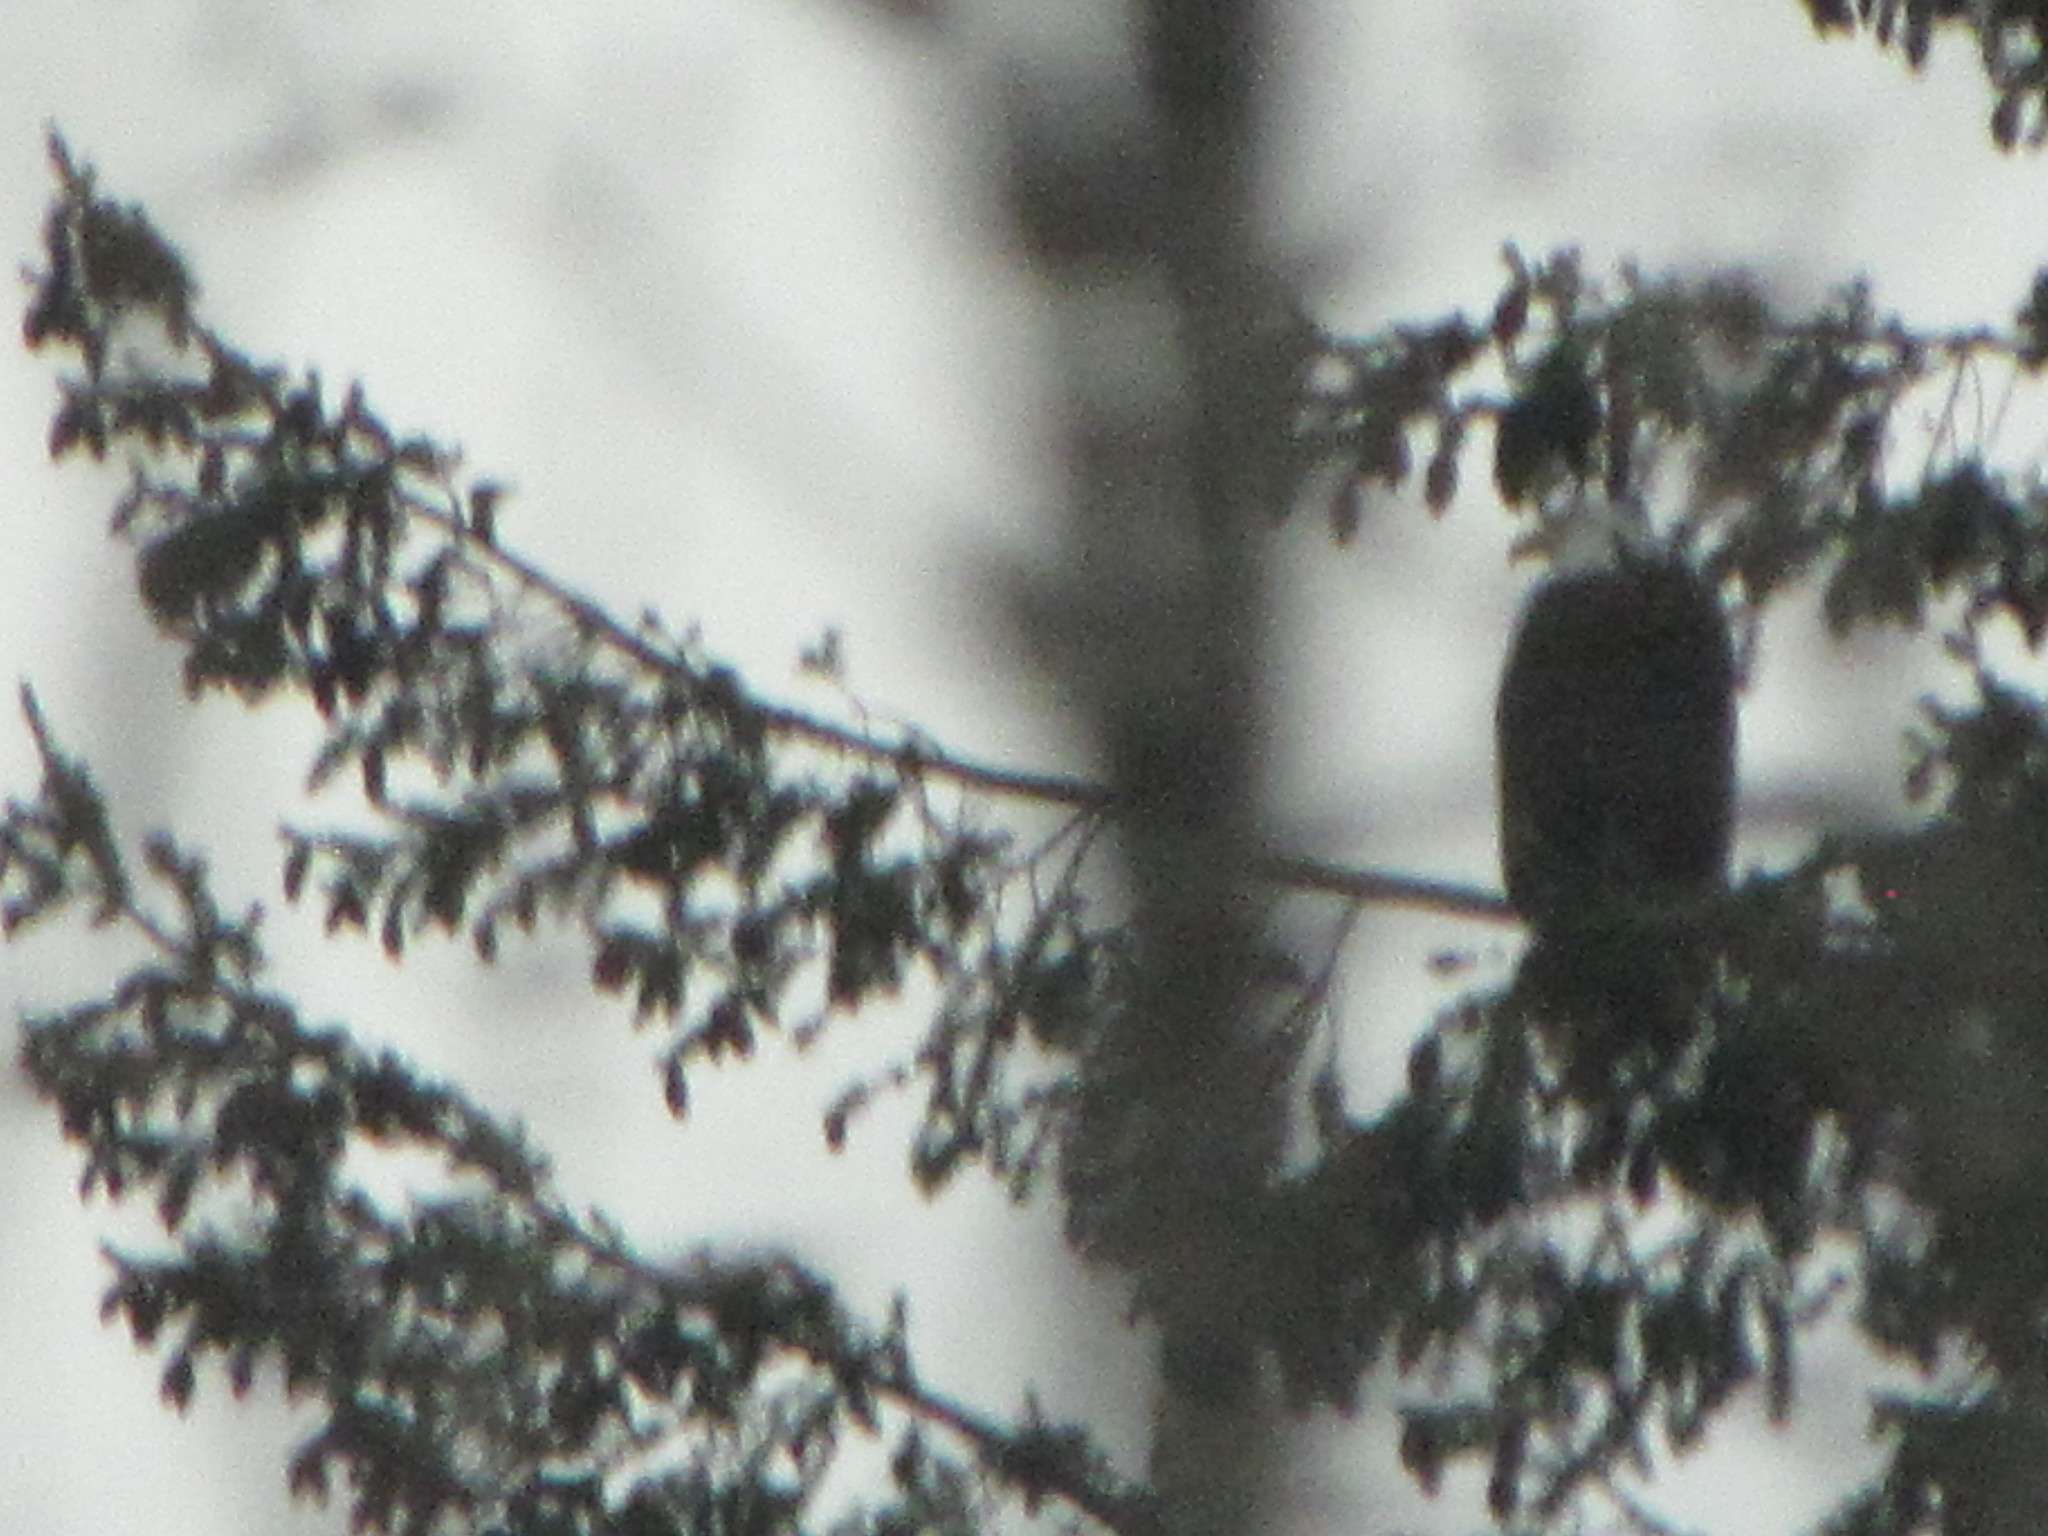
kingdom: Animalia
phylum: Chordata
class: Aves
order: Accipitriformes
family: Accipitridae
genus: Haliaeetus
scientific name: Haliaeetus leucocephalus
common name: Bald eagle
